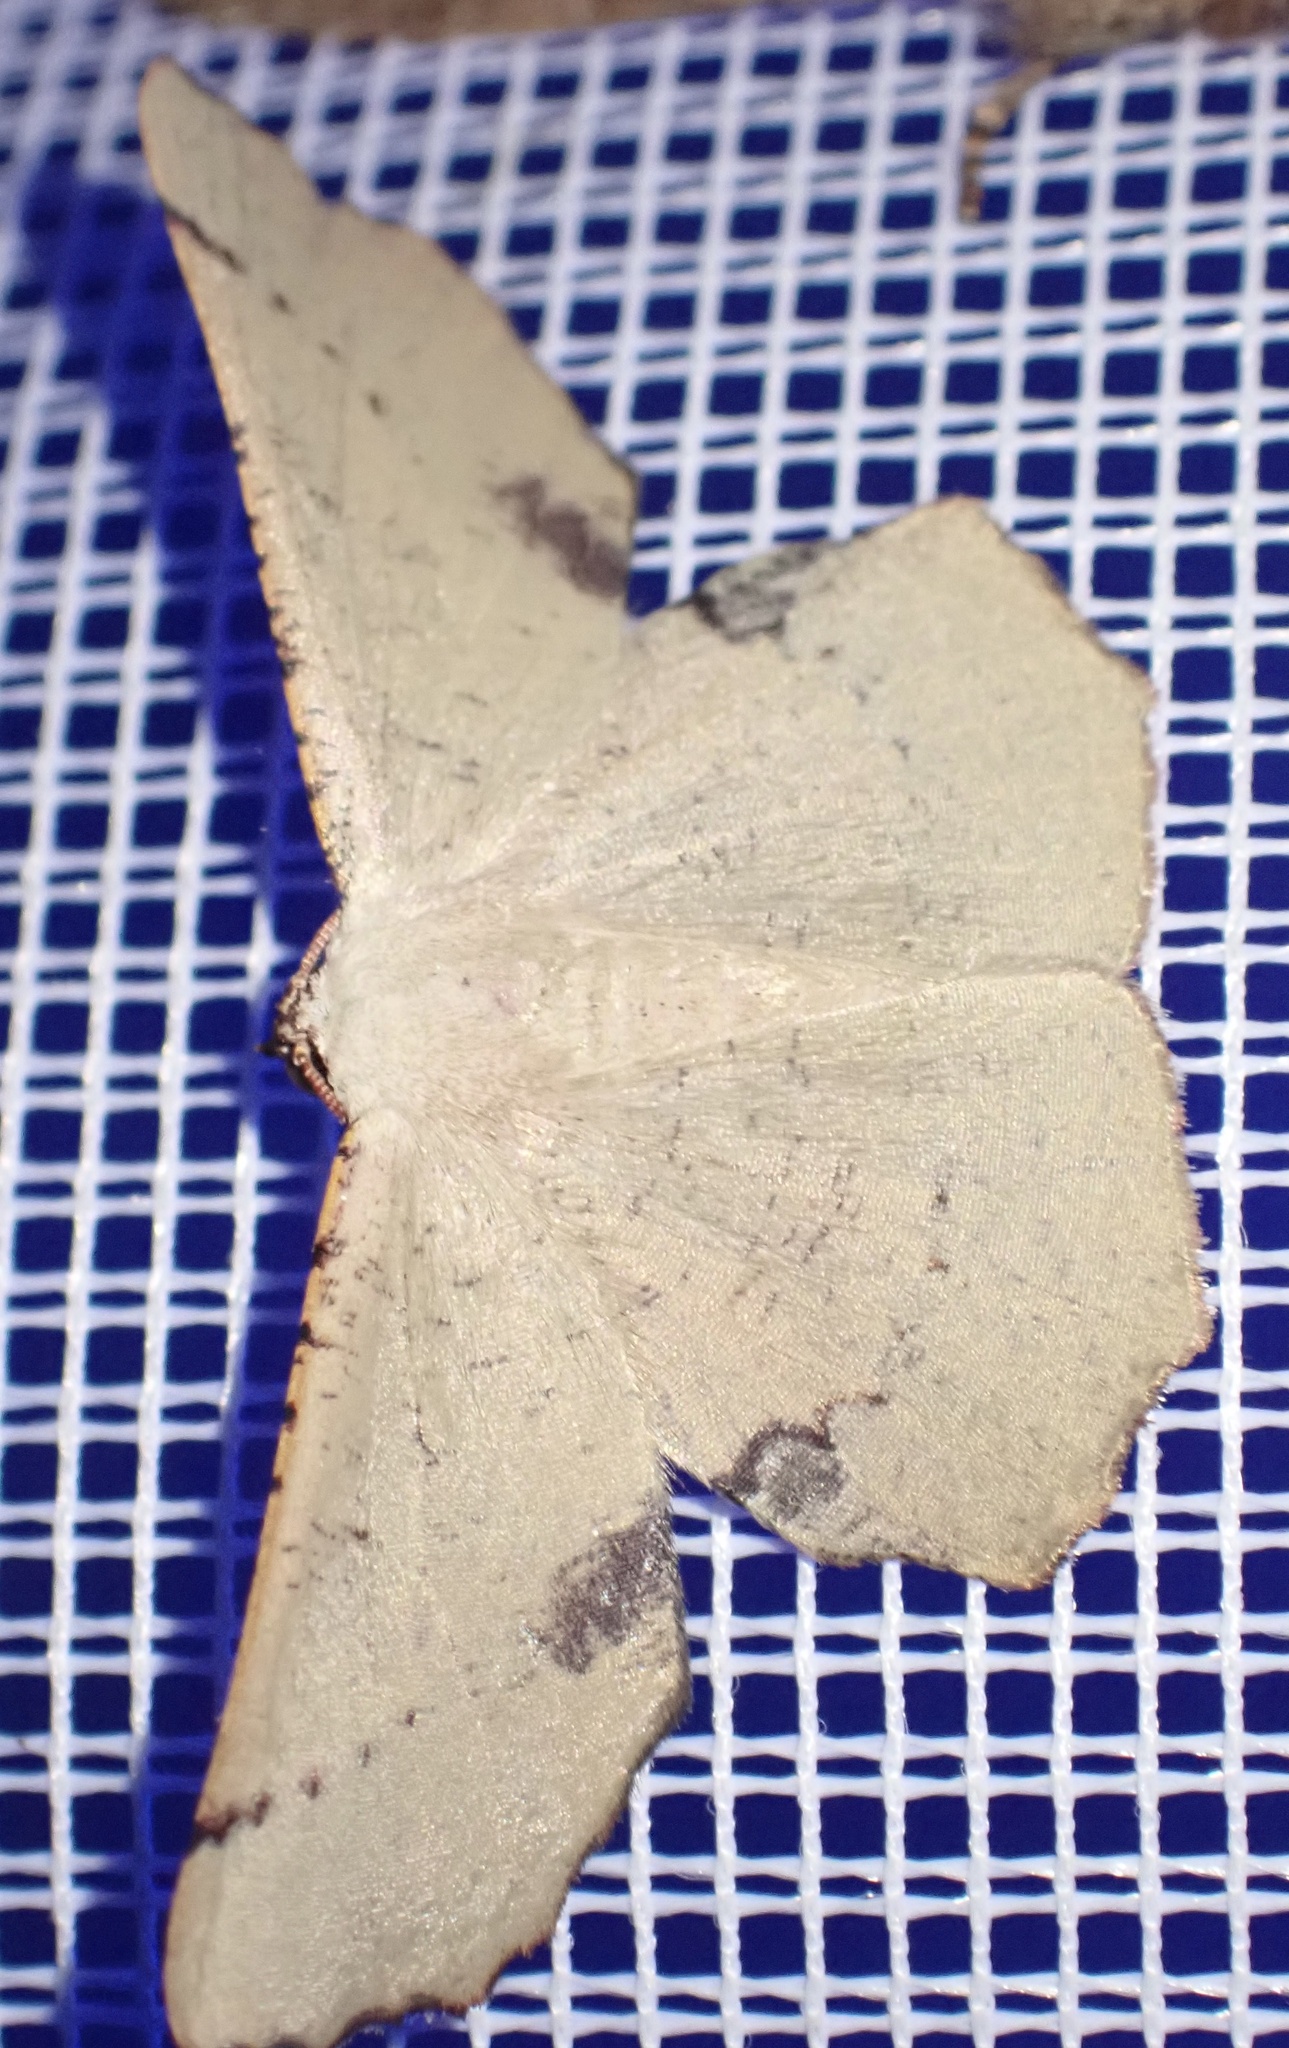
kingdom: Animalia
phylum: Arthropoda
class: Insecta
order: Lepidoptera
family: Geometridae
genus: Cernia
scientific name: Cernia amyclaria
